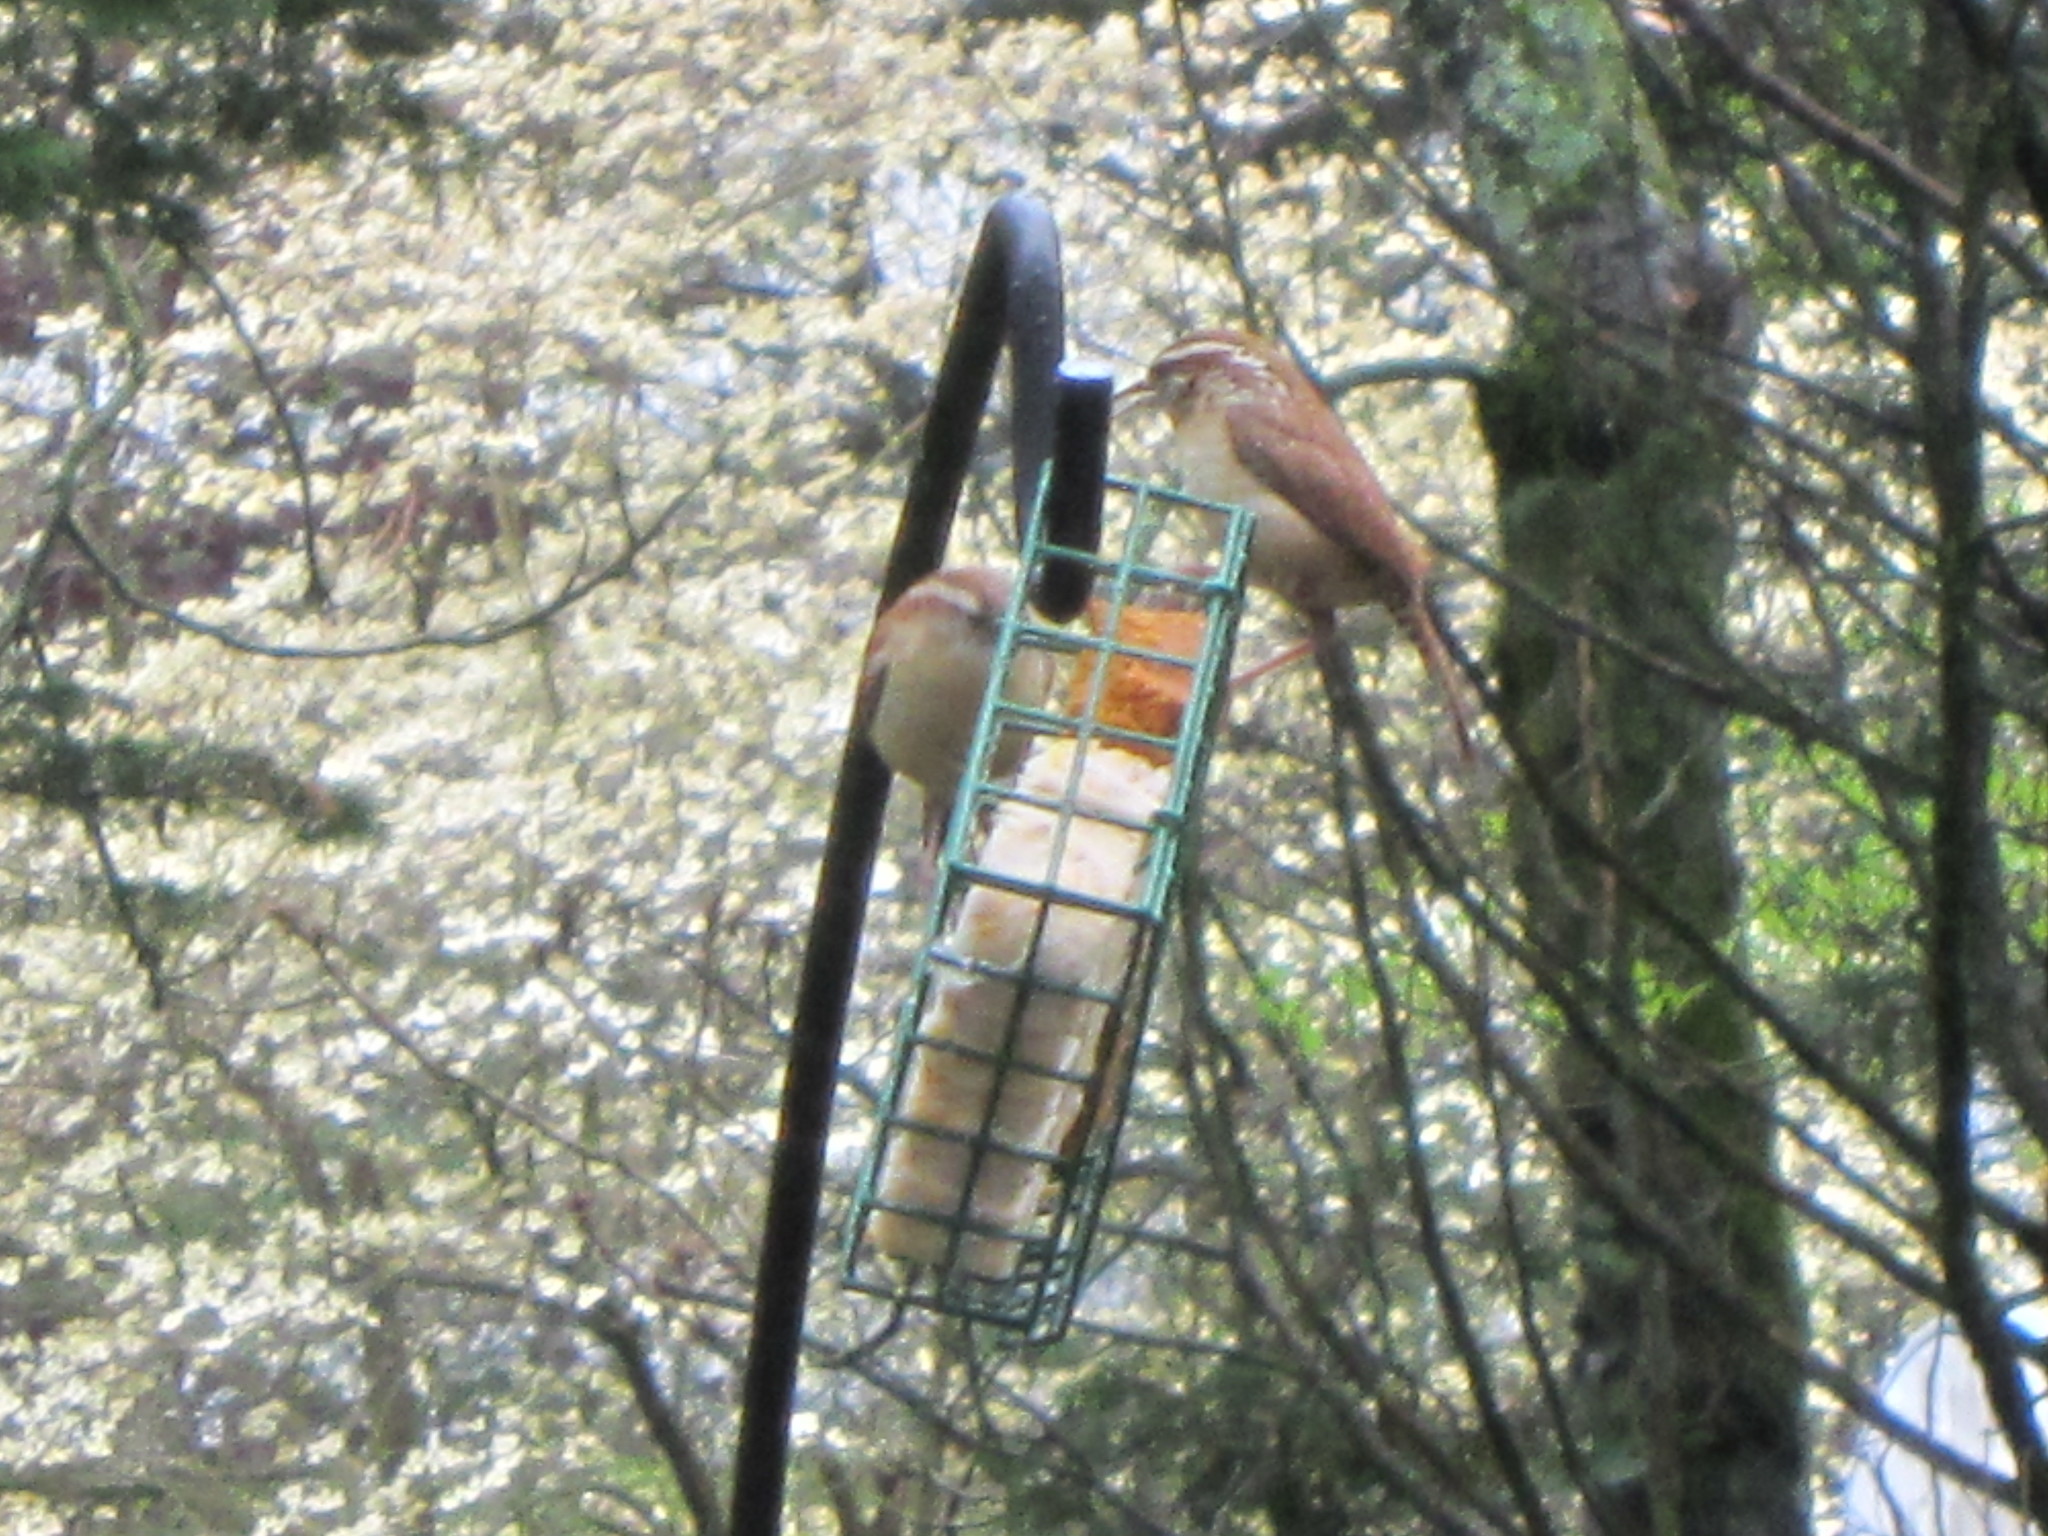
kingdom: Animalia
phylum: Chordata
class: Aves
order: Passeriformes
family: Troglodytidae
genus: Thryothorus
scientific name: Thryothorus ludovicianus
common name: Carolina wren
